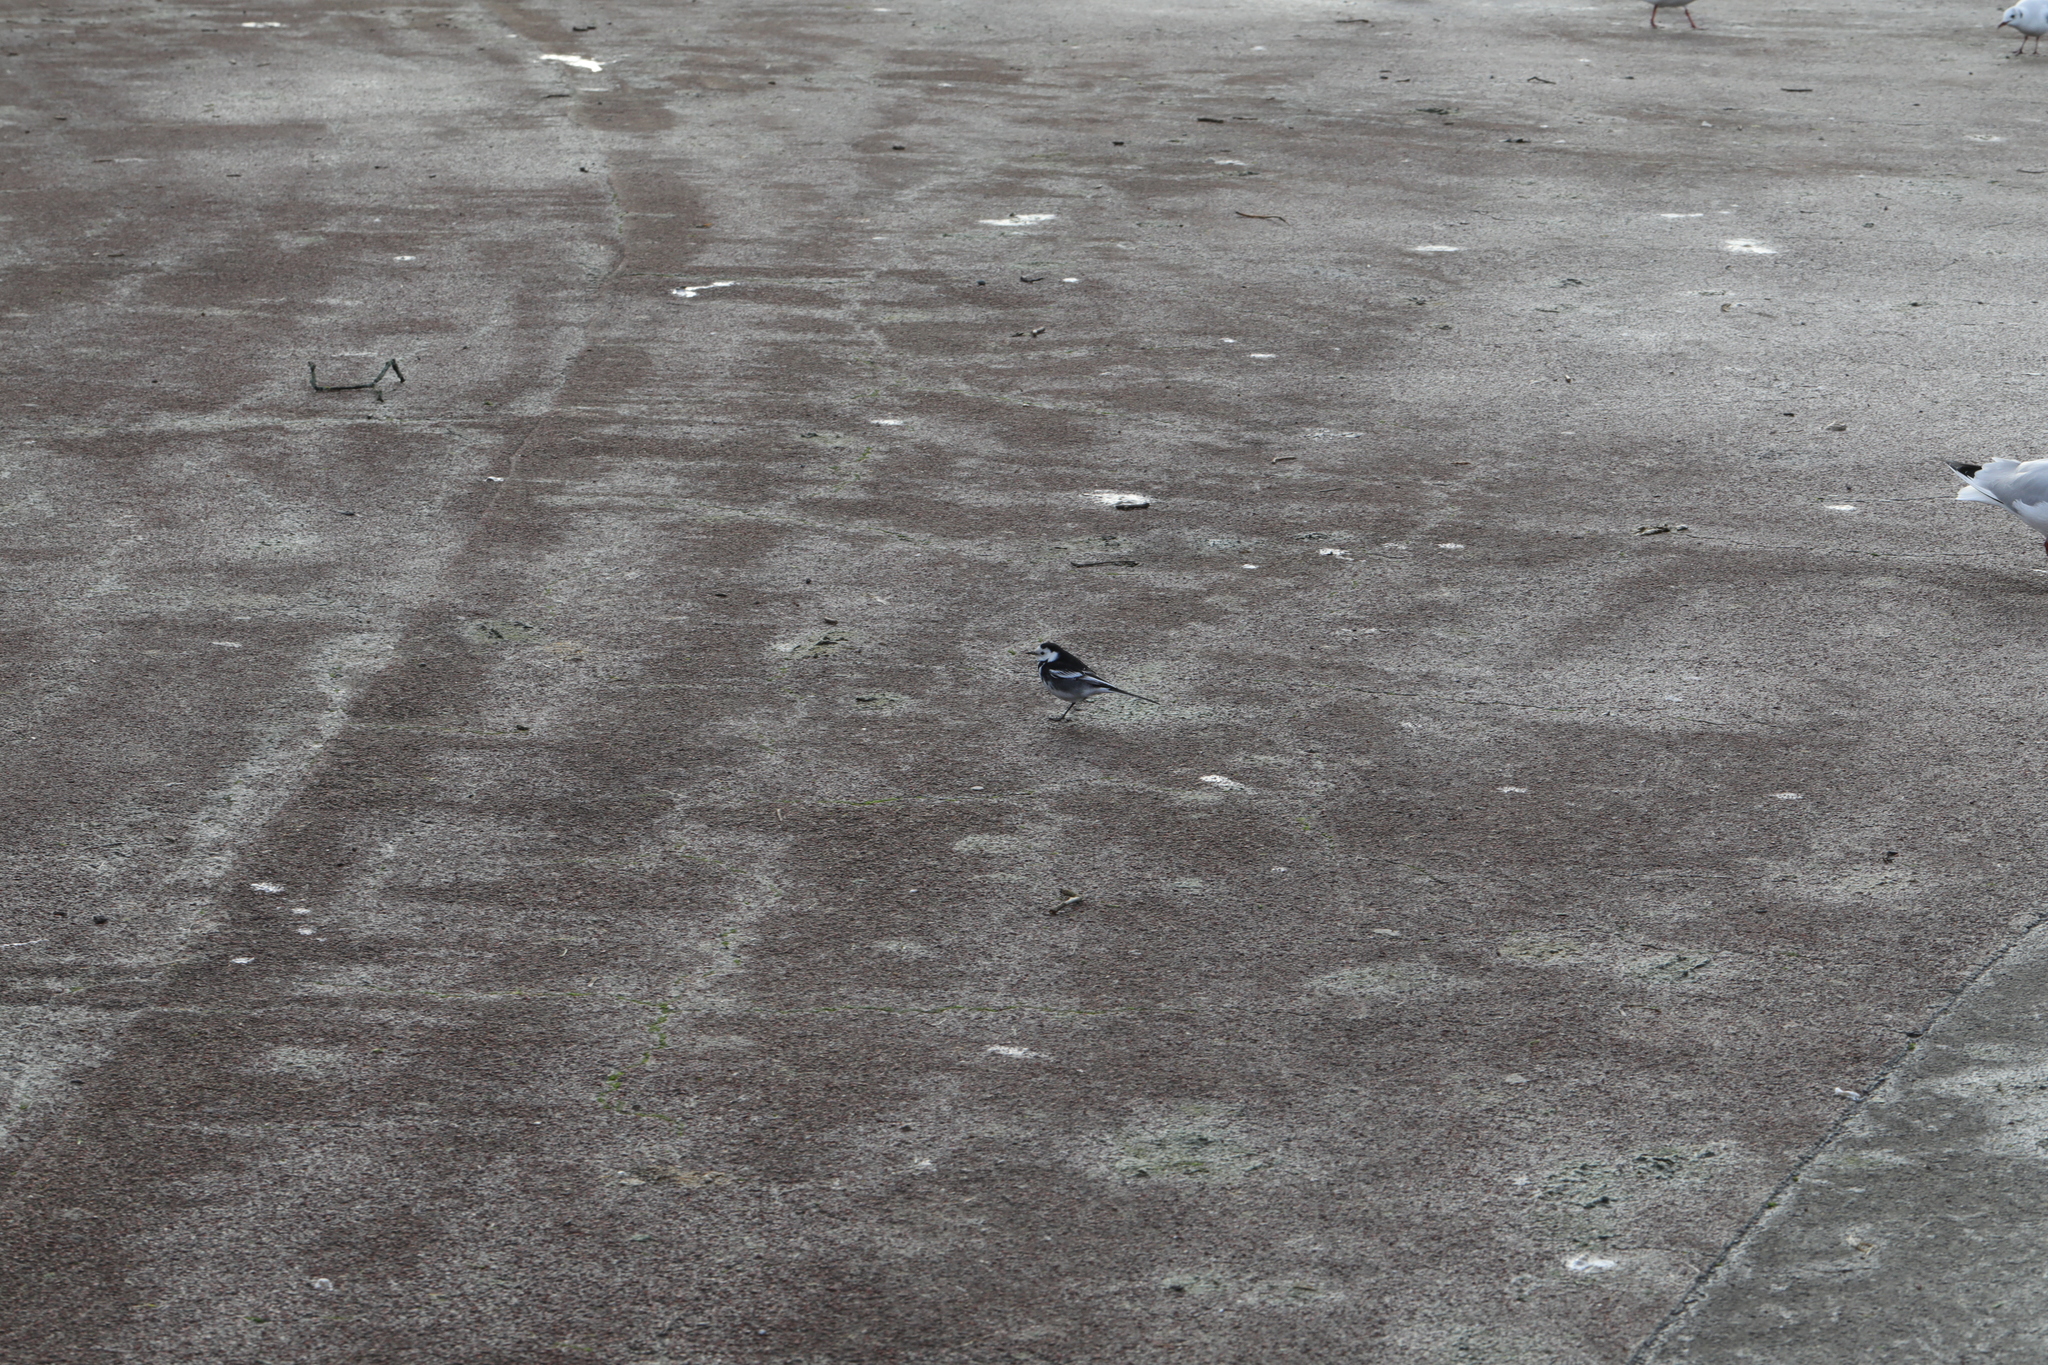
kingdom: Animalia
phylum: Chordata
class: Aves
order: Passeriformes
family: Motacillidae
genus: Motacilla
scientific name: Motacilla alba
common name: White wagtail
